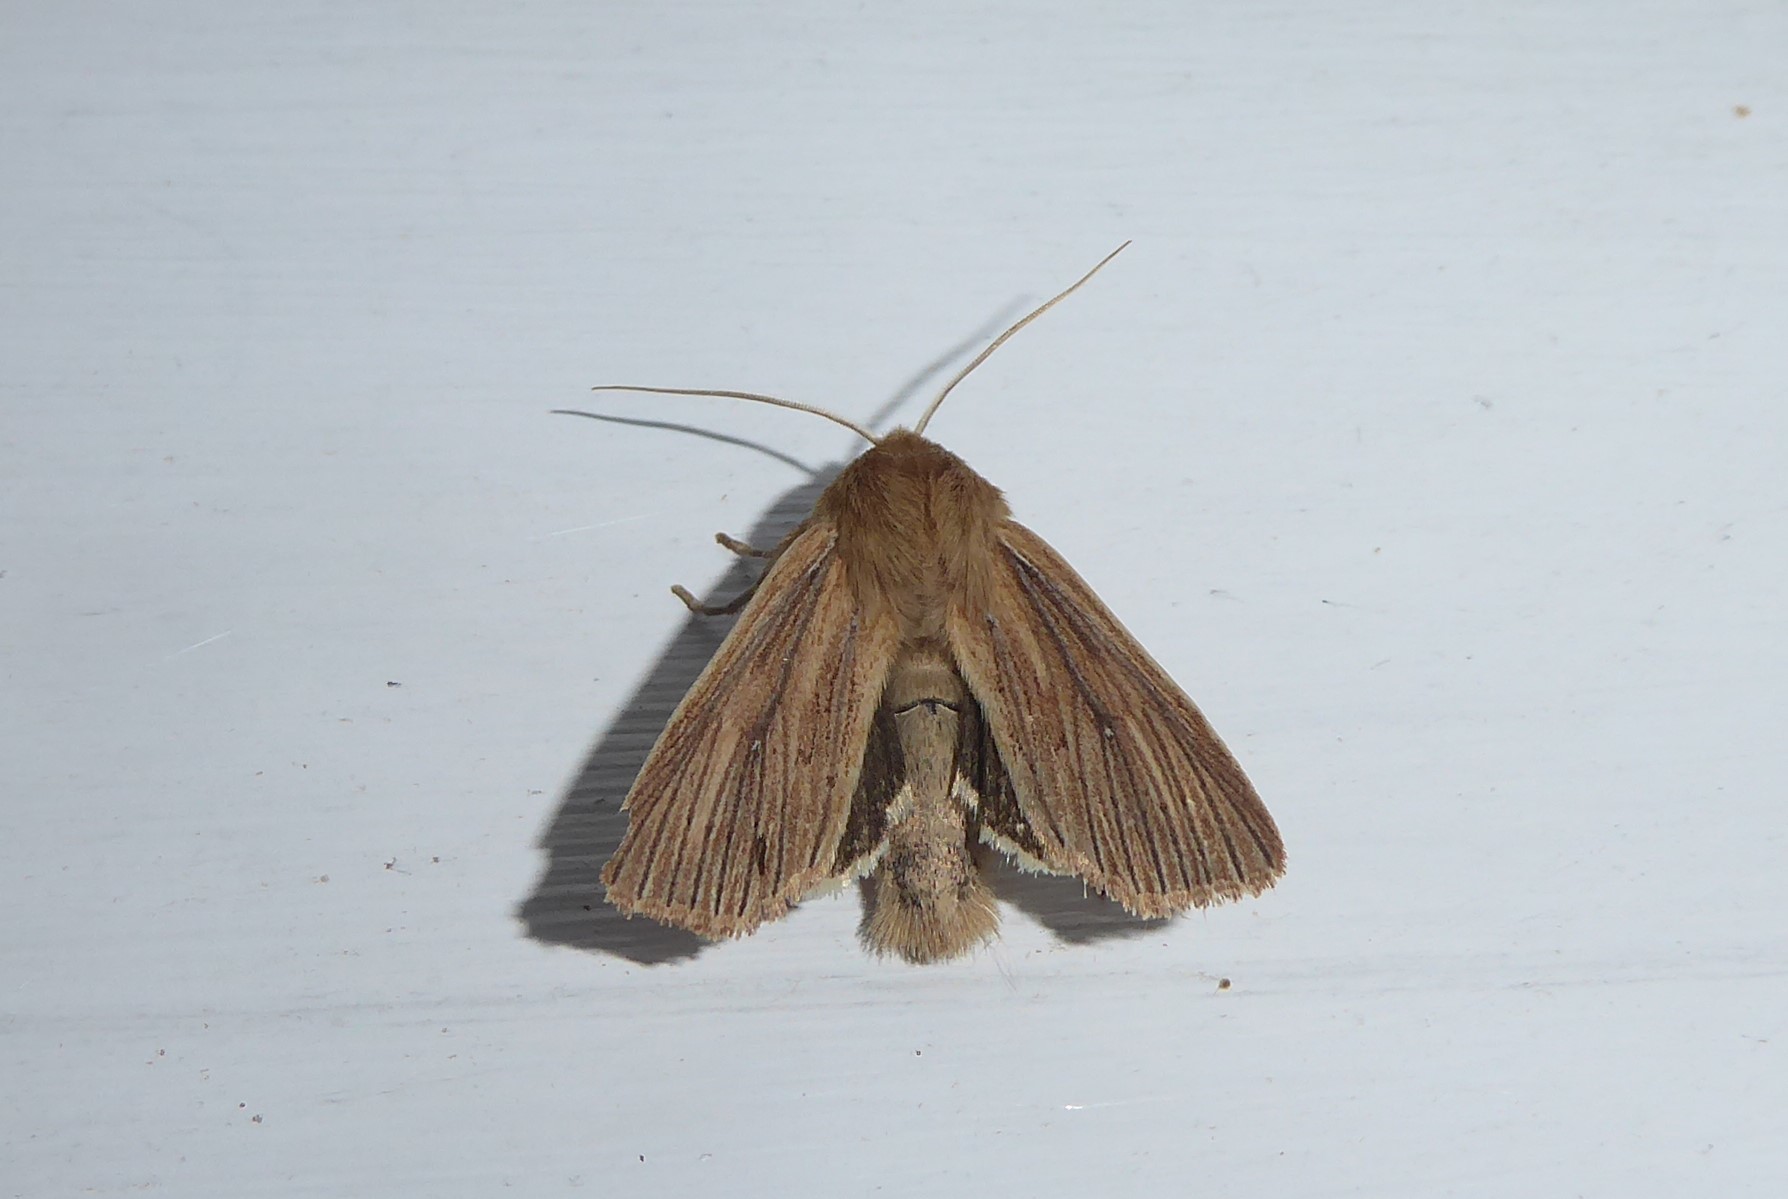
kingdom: Animalia
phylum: Arthropoda
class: Insecta
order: Lepidoptera
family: Noctuidae
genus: Ichneutica
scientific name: Ichneutica arotis
